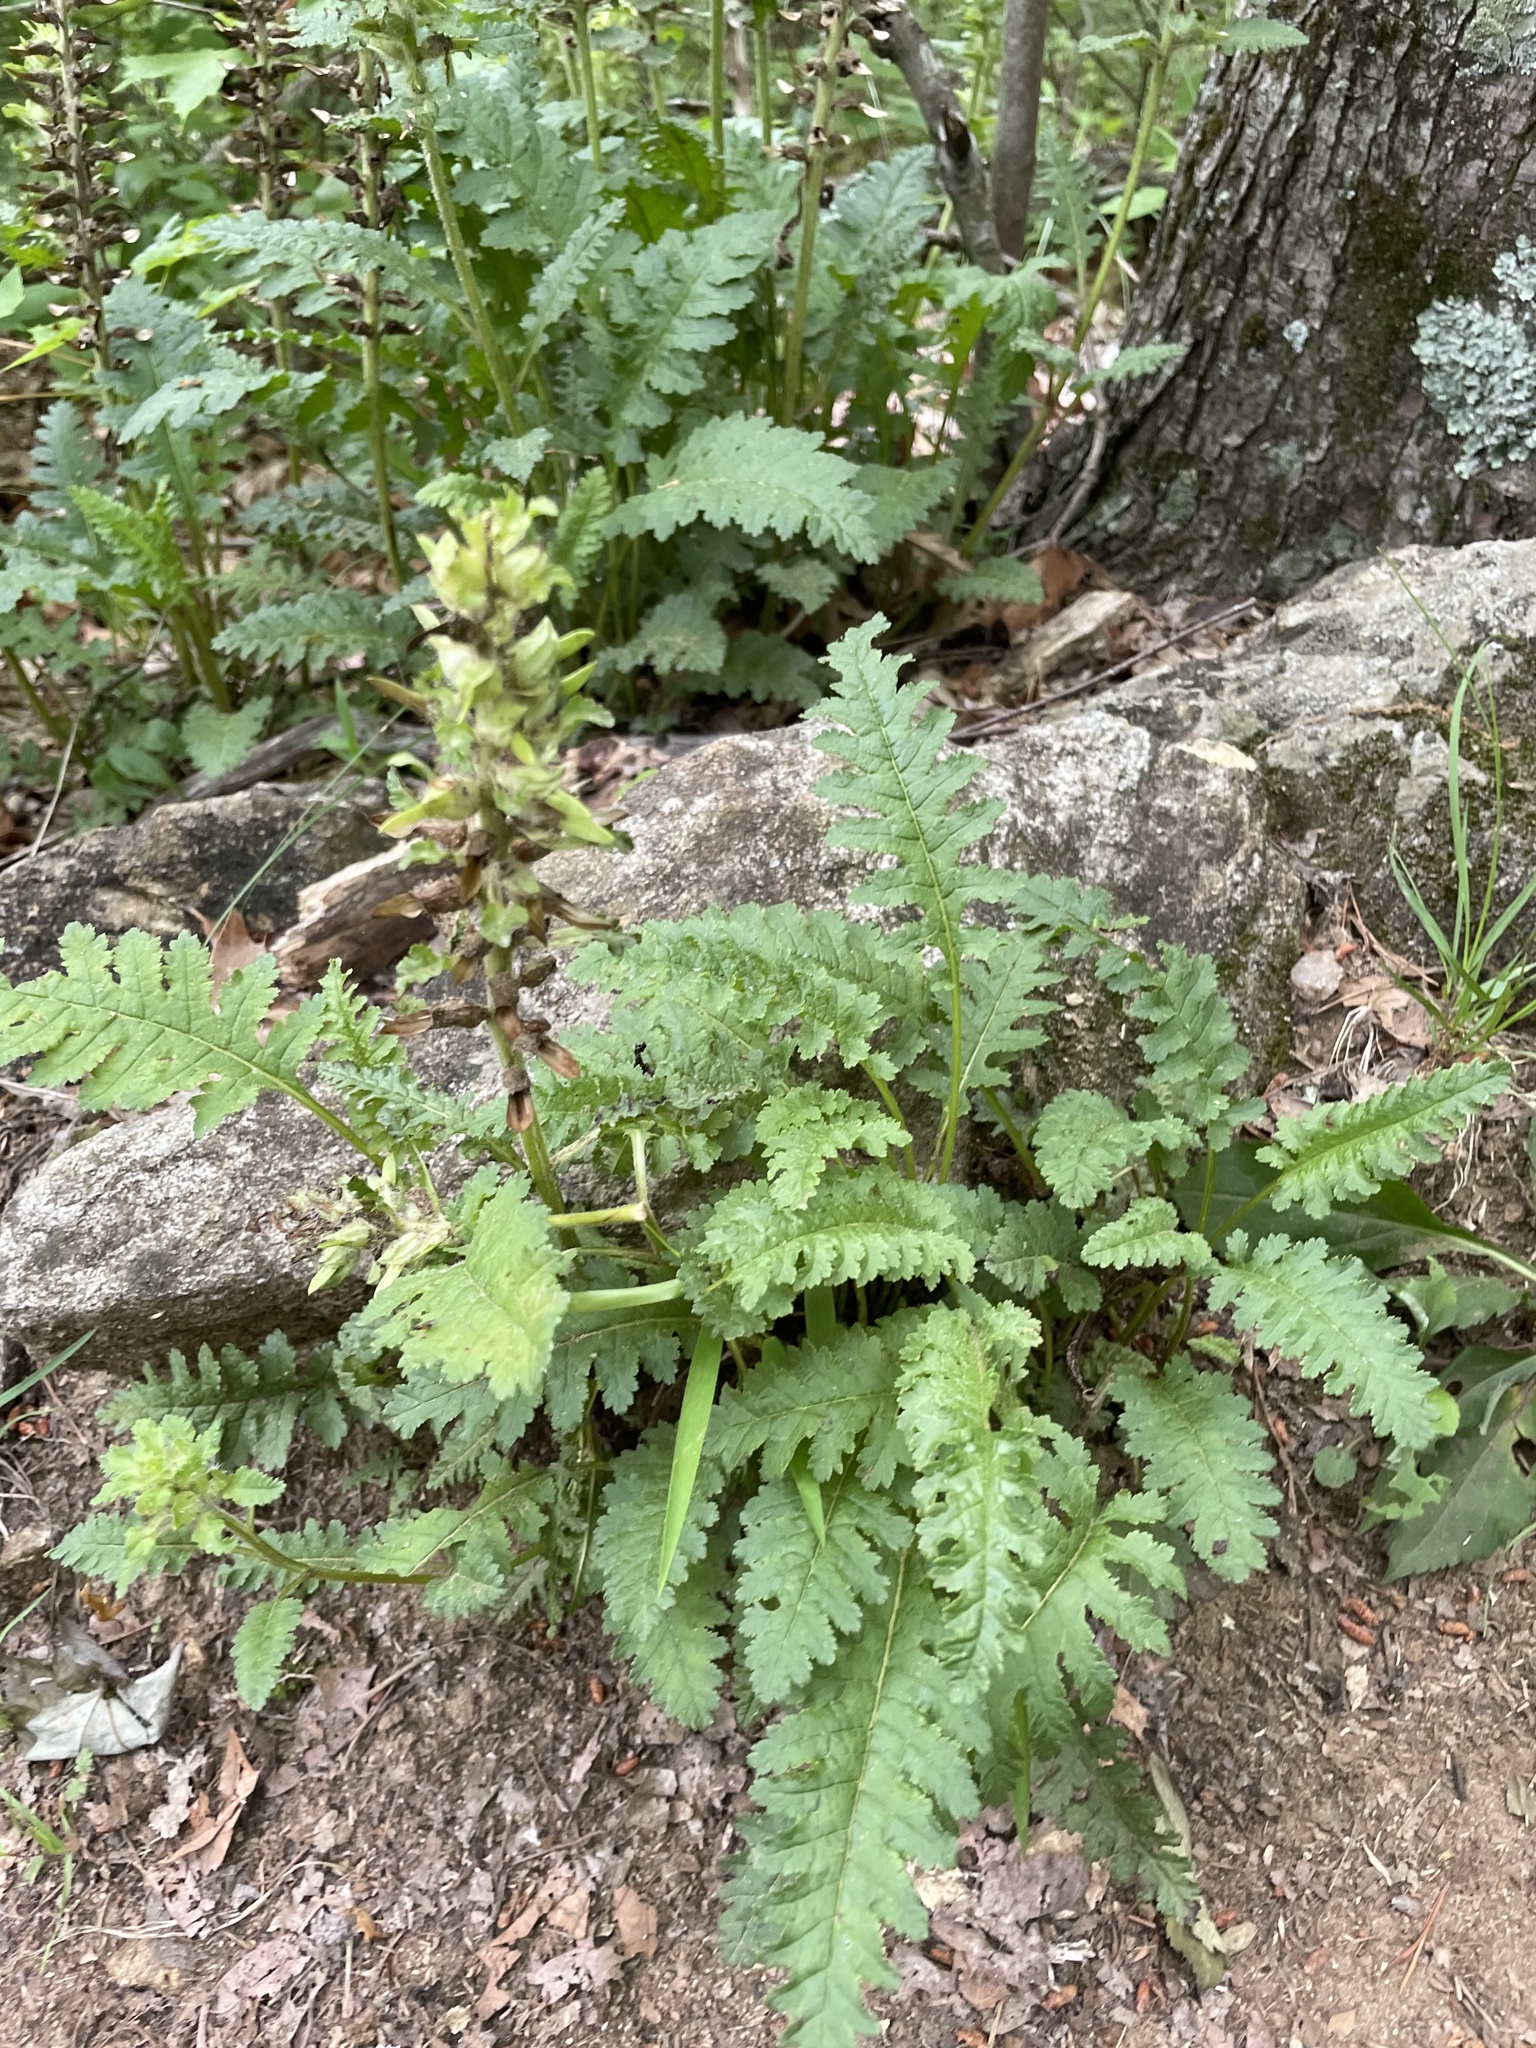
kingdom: Plantae
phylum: Tracheophyta
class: Magnoliopsida
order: Lamiales
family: Orobanchaceae
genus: Pedicularis
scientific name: Pedicularis canadensis
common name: Early lousewort
